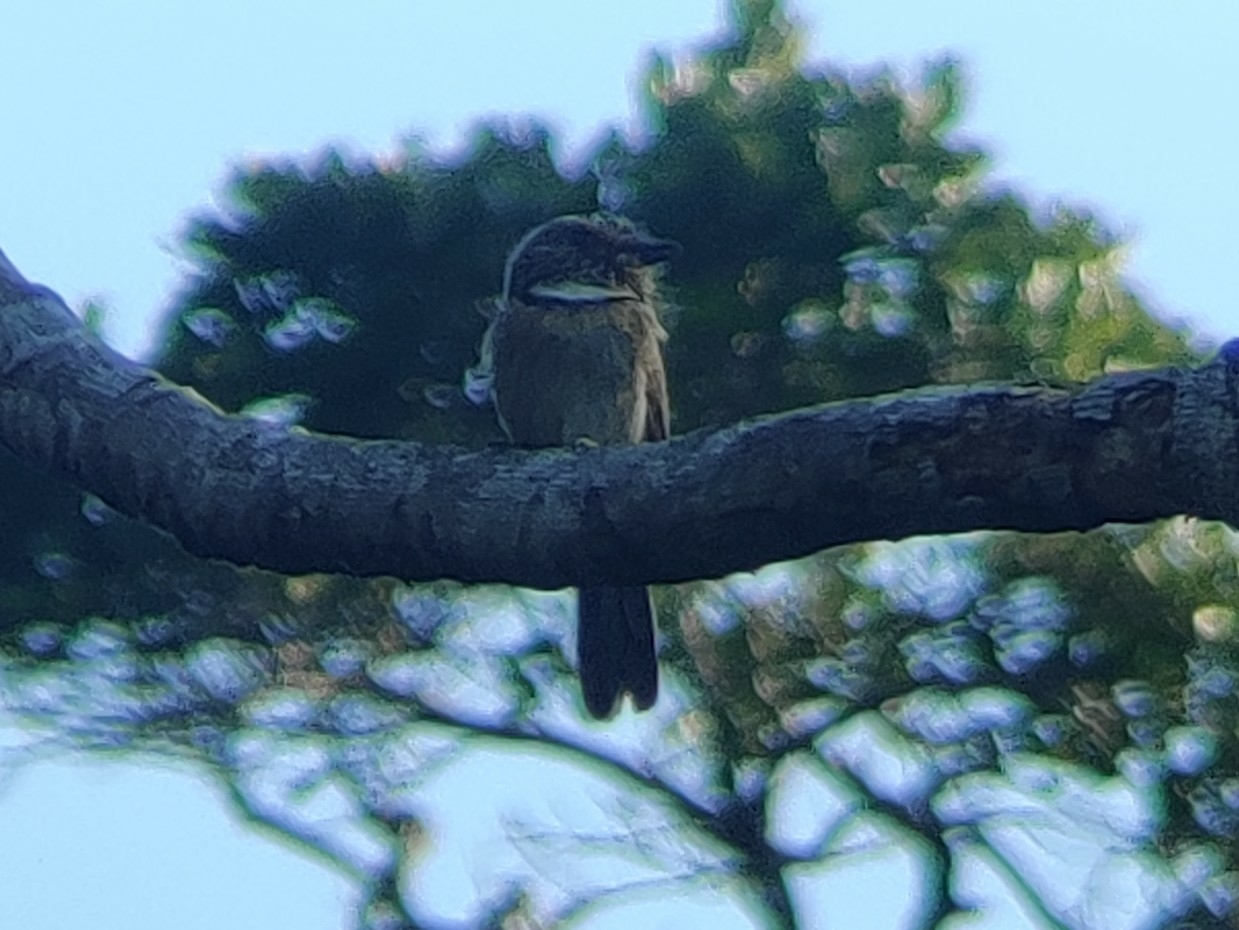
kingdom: Animalia
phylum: Chordata
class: Aves
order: Piciformes
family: Bucconidae
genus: Malacoptila
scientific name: Malacoptila striata
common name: Crescent-chested puffbird
